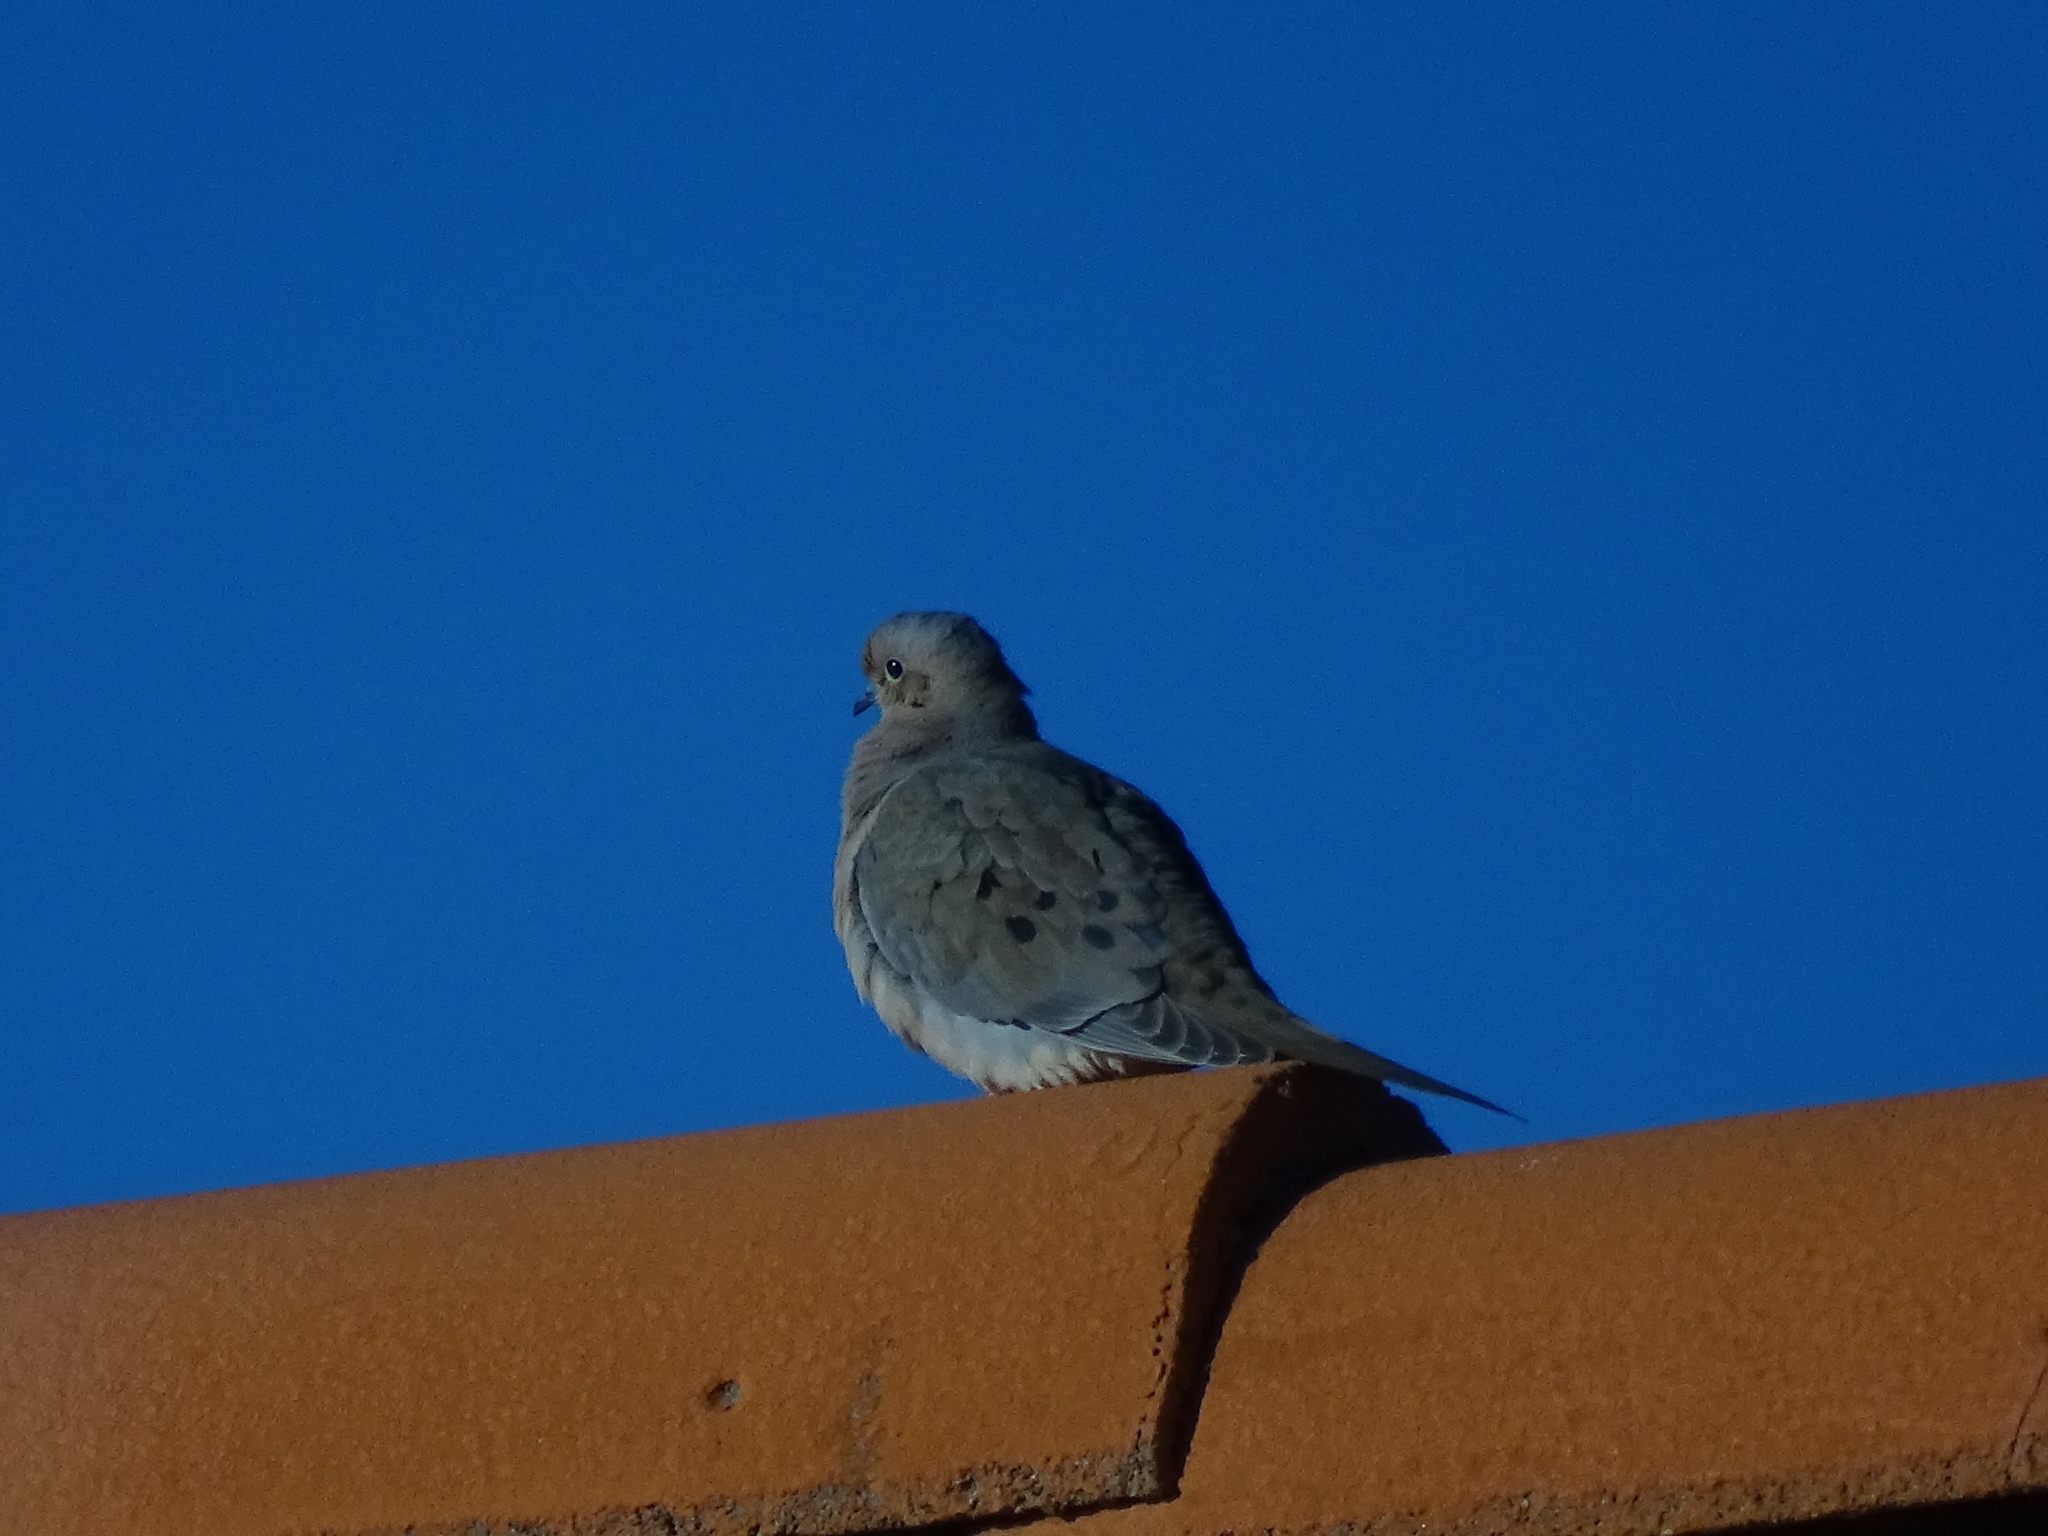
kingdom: Animalia
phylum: Chordata
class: Aves
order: Columbiformes
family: Columbidae
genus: Zenaida
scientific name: Zenaida macroura
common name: Mourning dove
